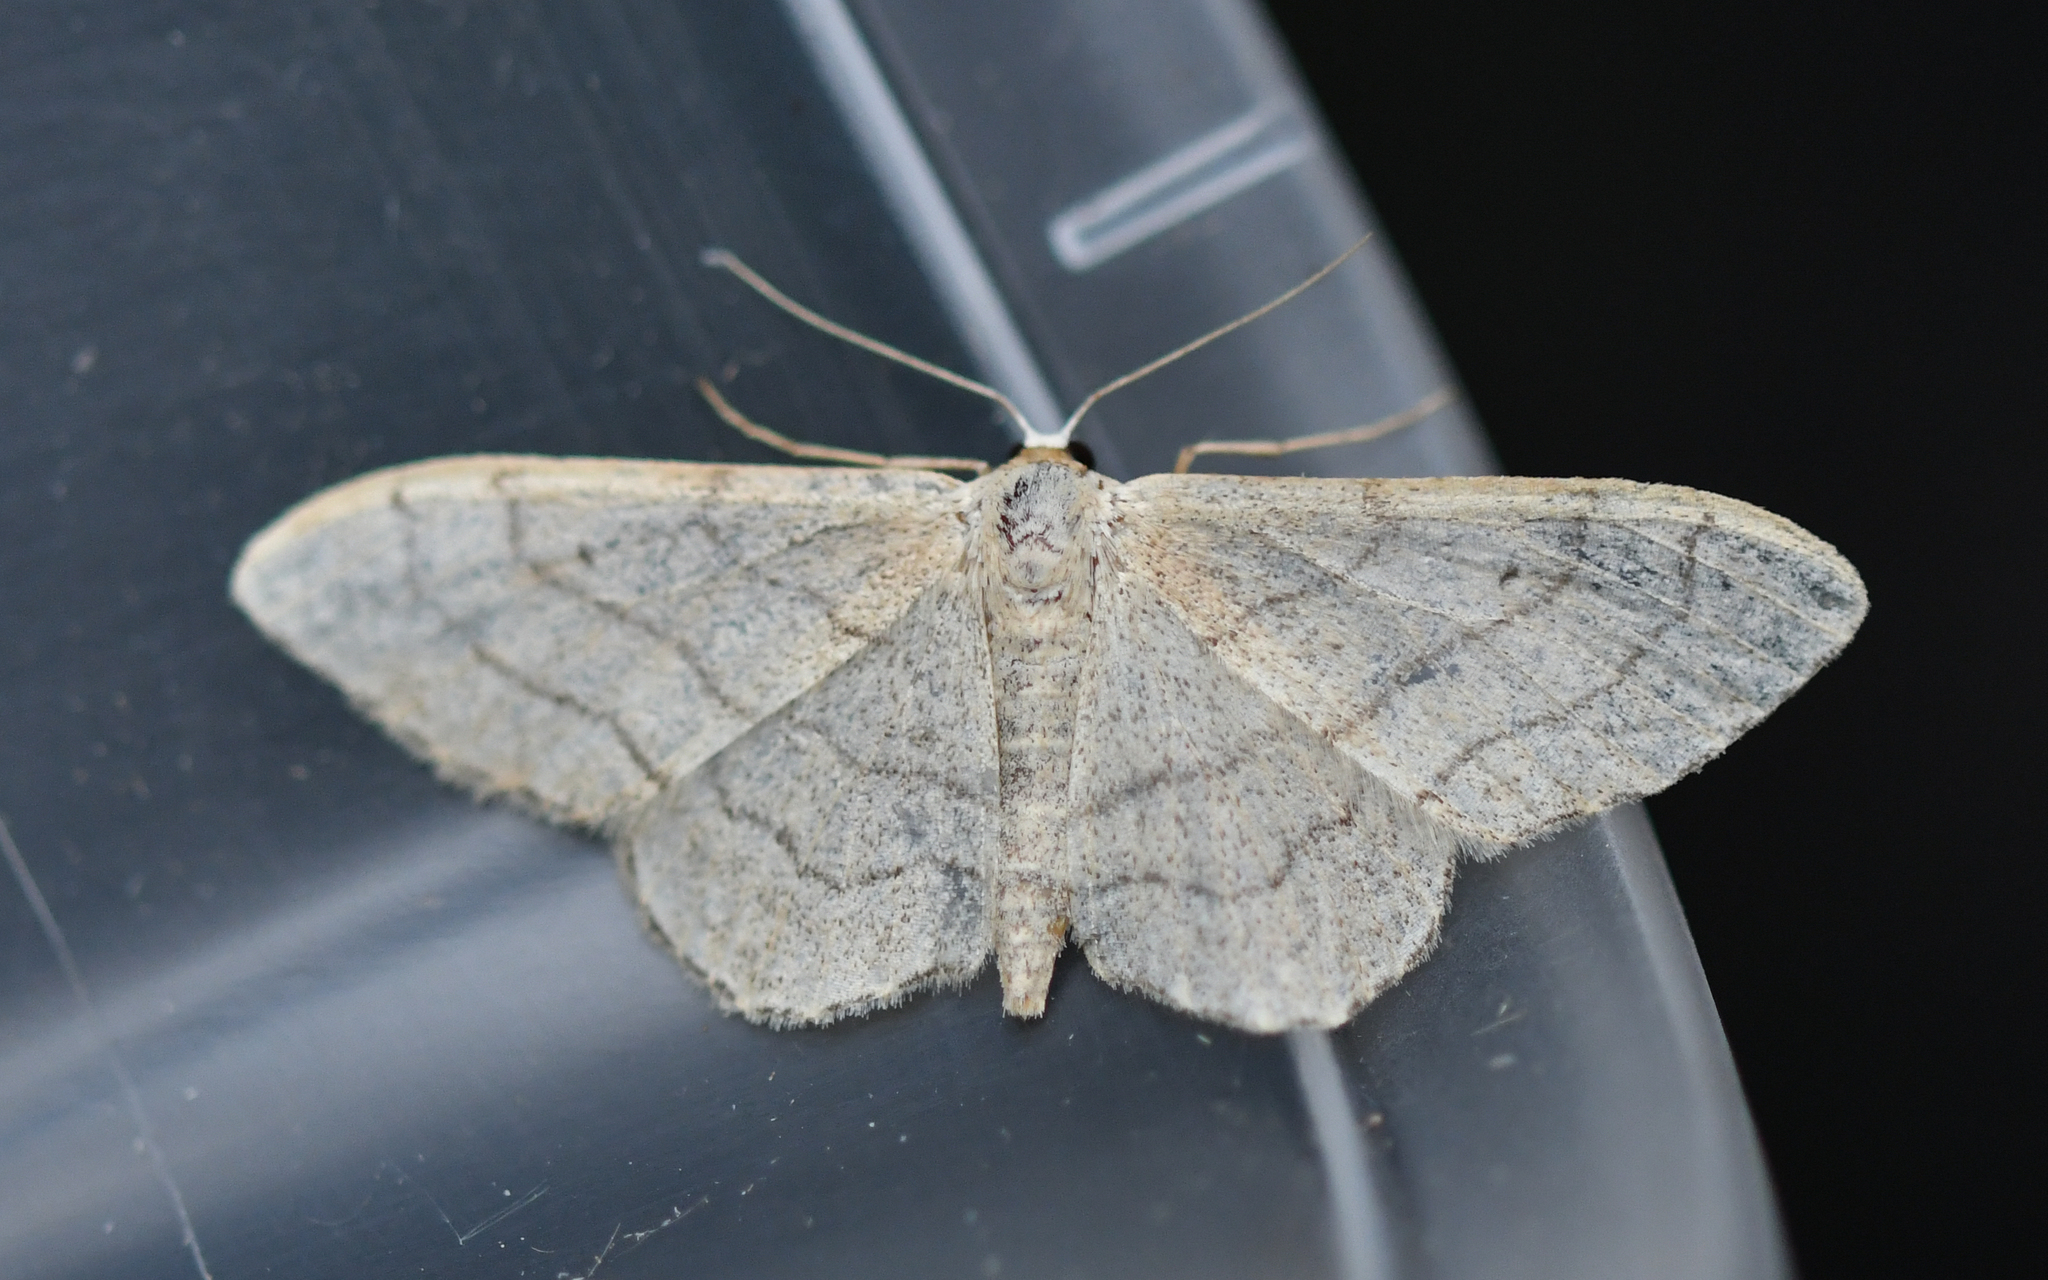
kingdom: Animalia
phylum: Arthropoda
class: Insecta
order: Lepidoptera
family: Geometridae
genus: Idaea
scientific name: Idaea aversata
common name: Riband wave
